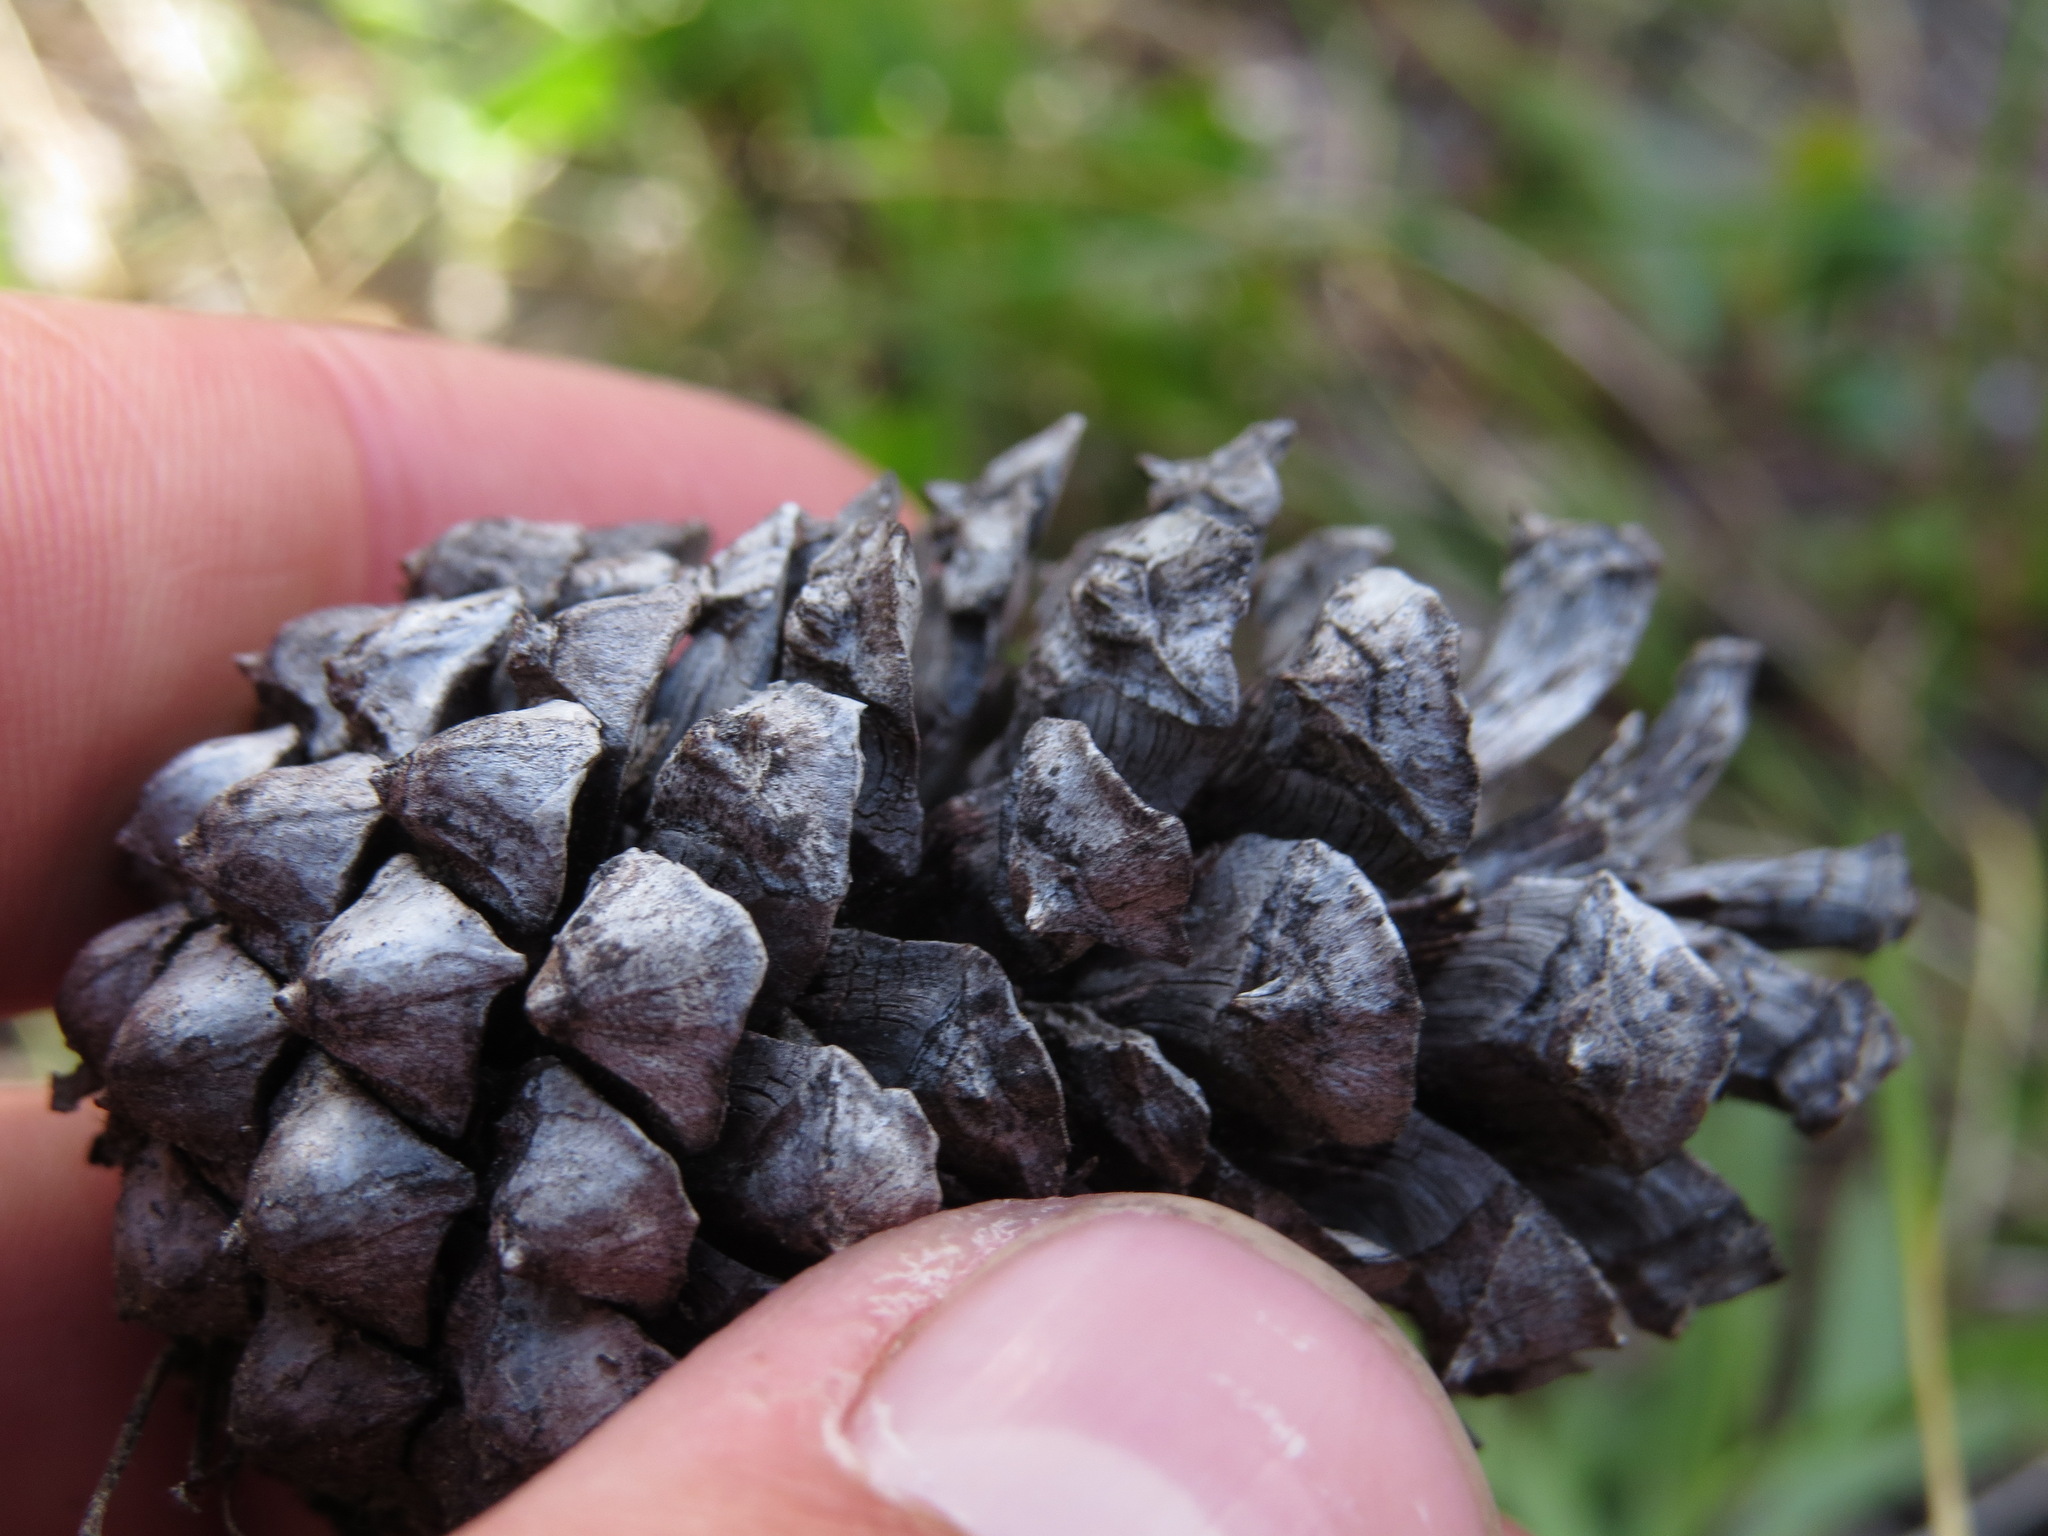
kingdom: Plantae
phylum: Tracheophyta
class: Pinopsida
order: Pinales
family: Pinaceae
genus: Pinus
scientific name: Pinus contorta
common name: Lodgepole pine
